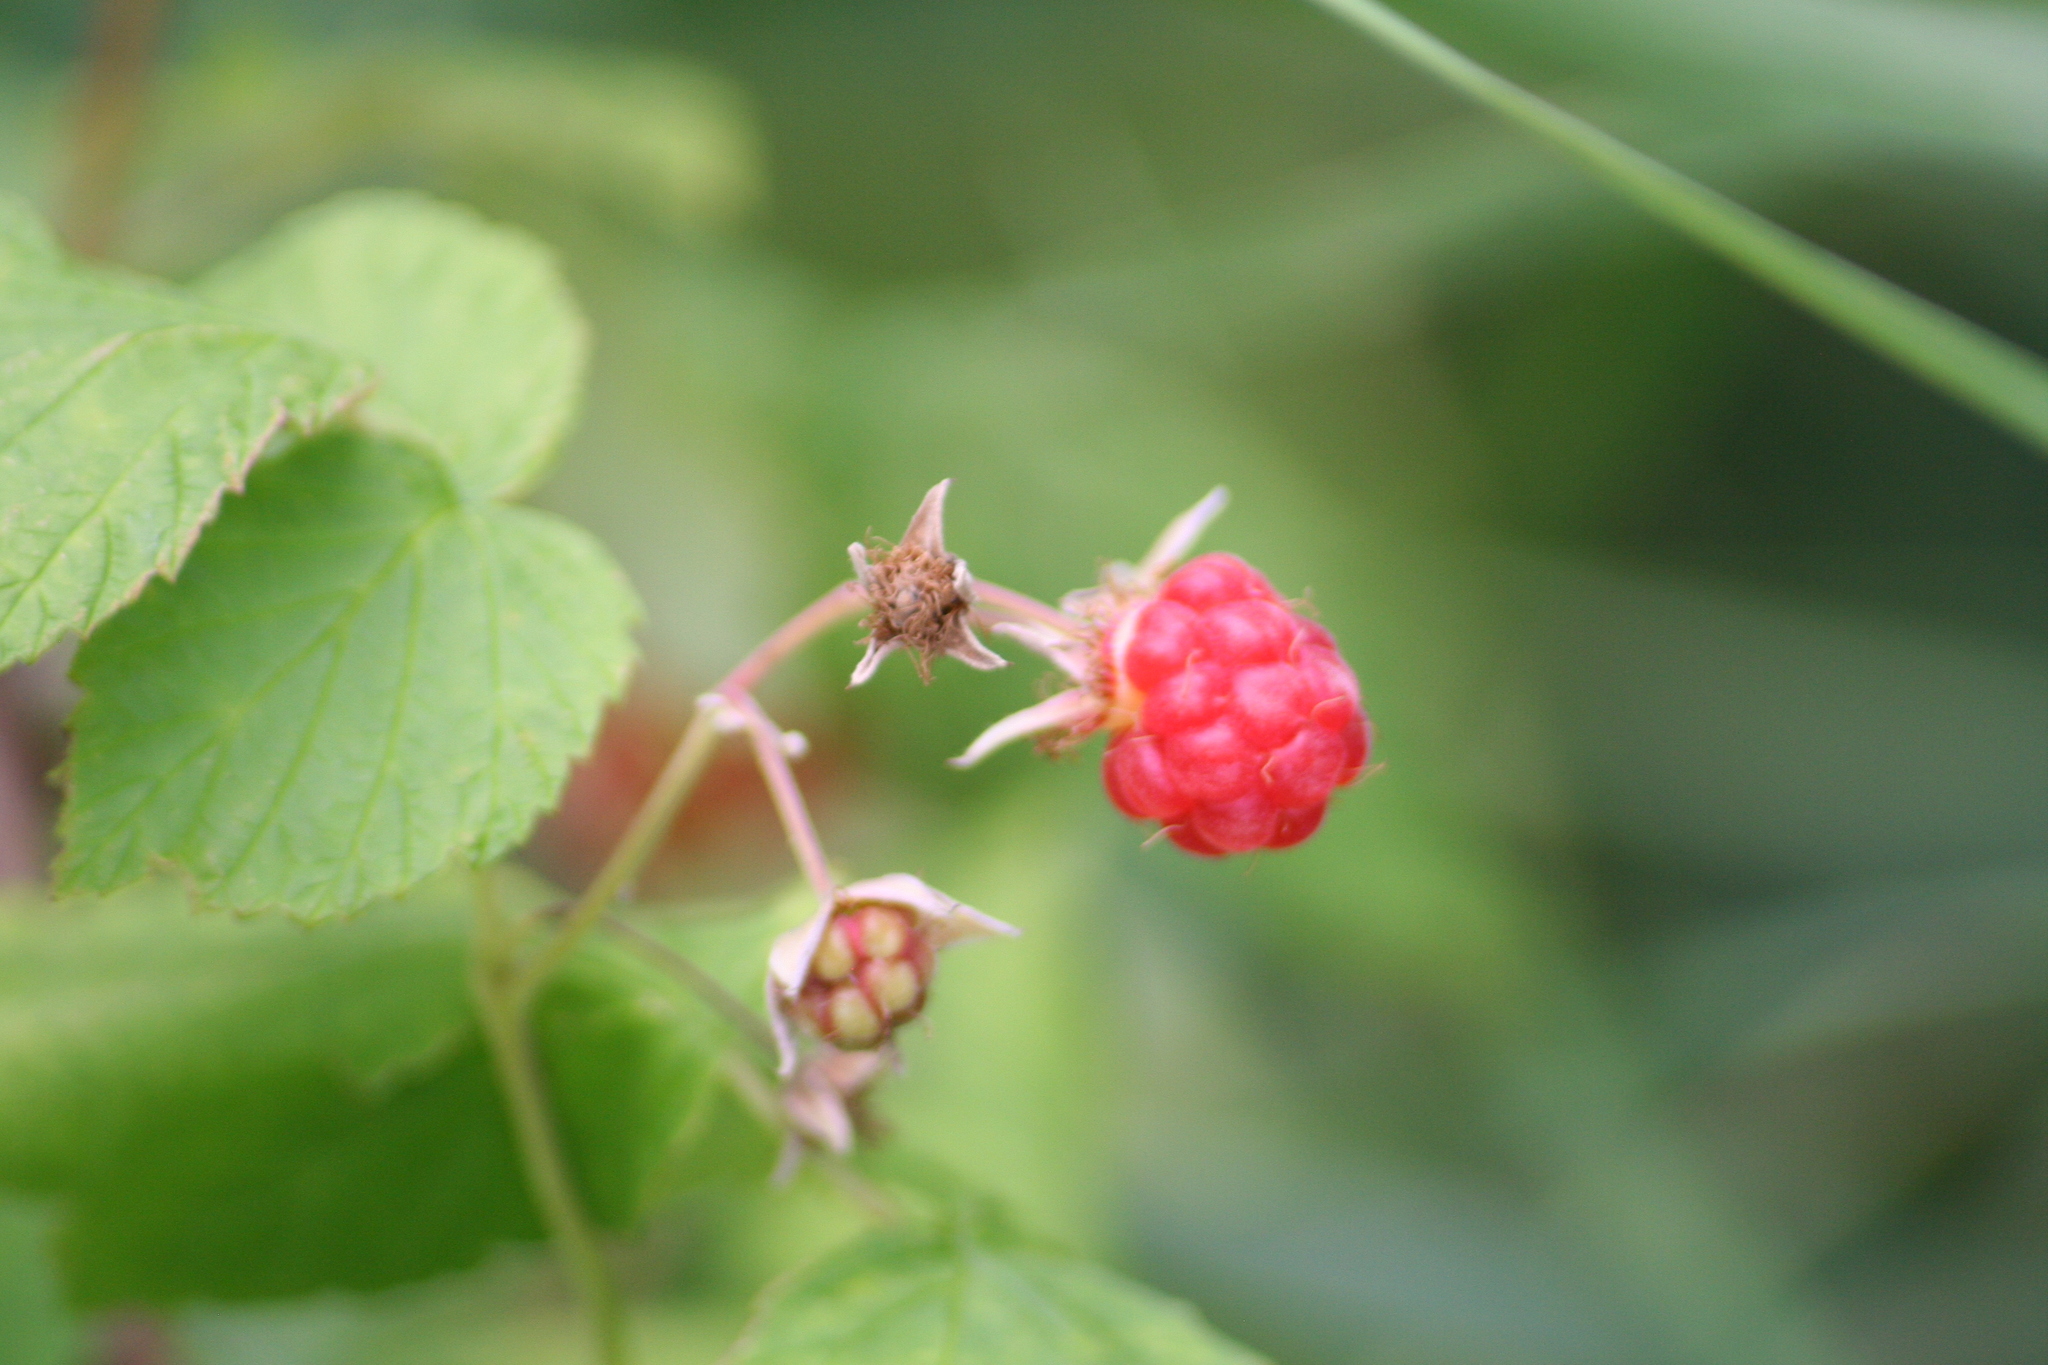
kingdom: Plantae
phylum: Tracheophyta
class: Magnoliopsida
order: Rosales
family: Rosaceae
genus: Rubus
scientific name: Rubus idaeus
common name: Raspberry
